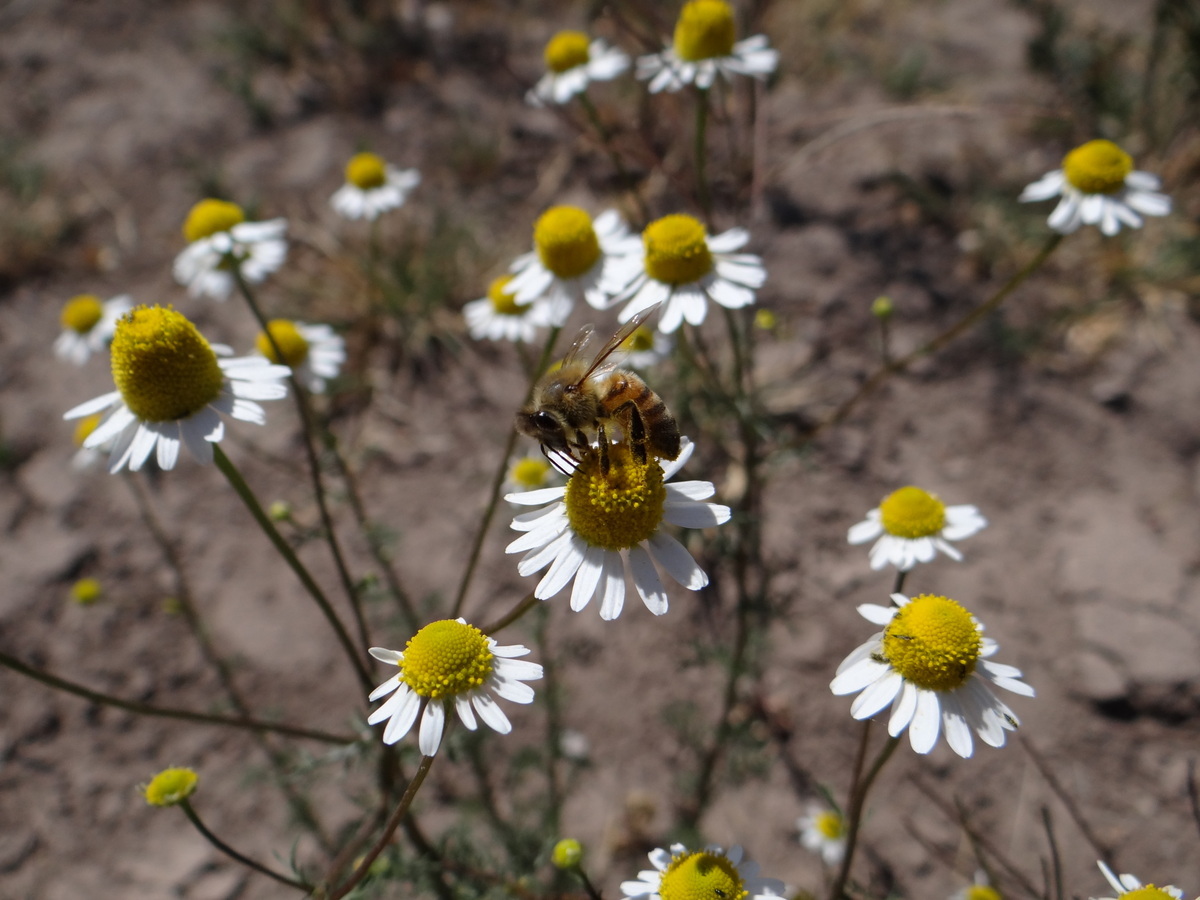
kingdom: Animalia
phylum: Arthropoda
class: Insecta
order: Hymenoptera
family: Apidae
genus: Apis
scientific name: Apis mellifera
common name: Honey bee
